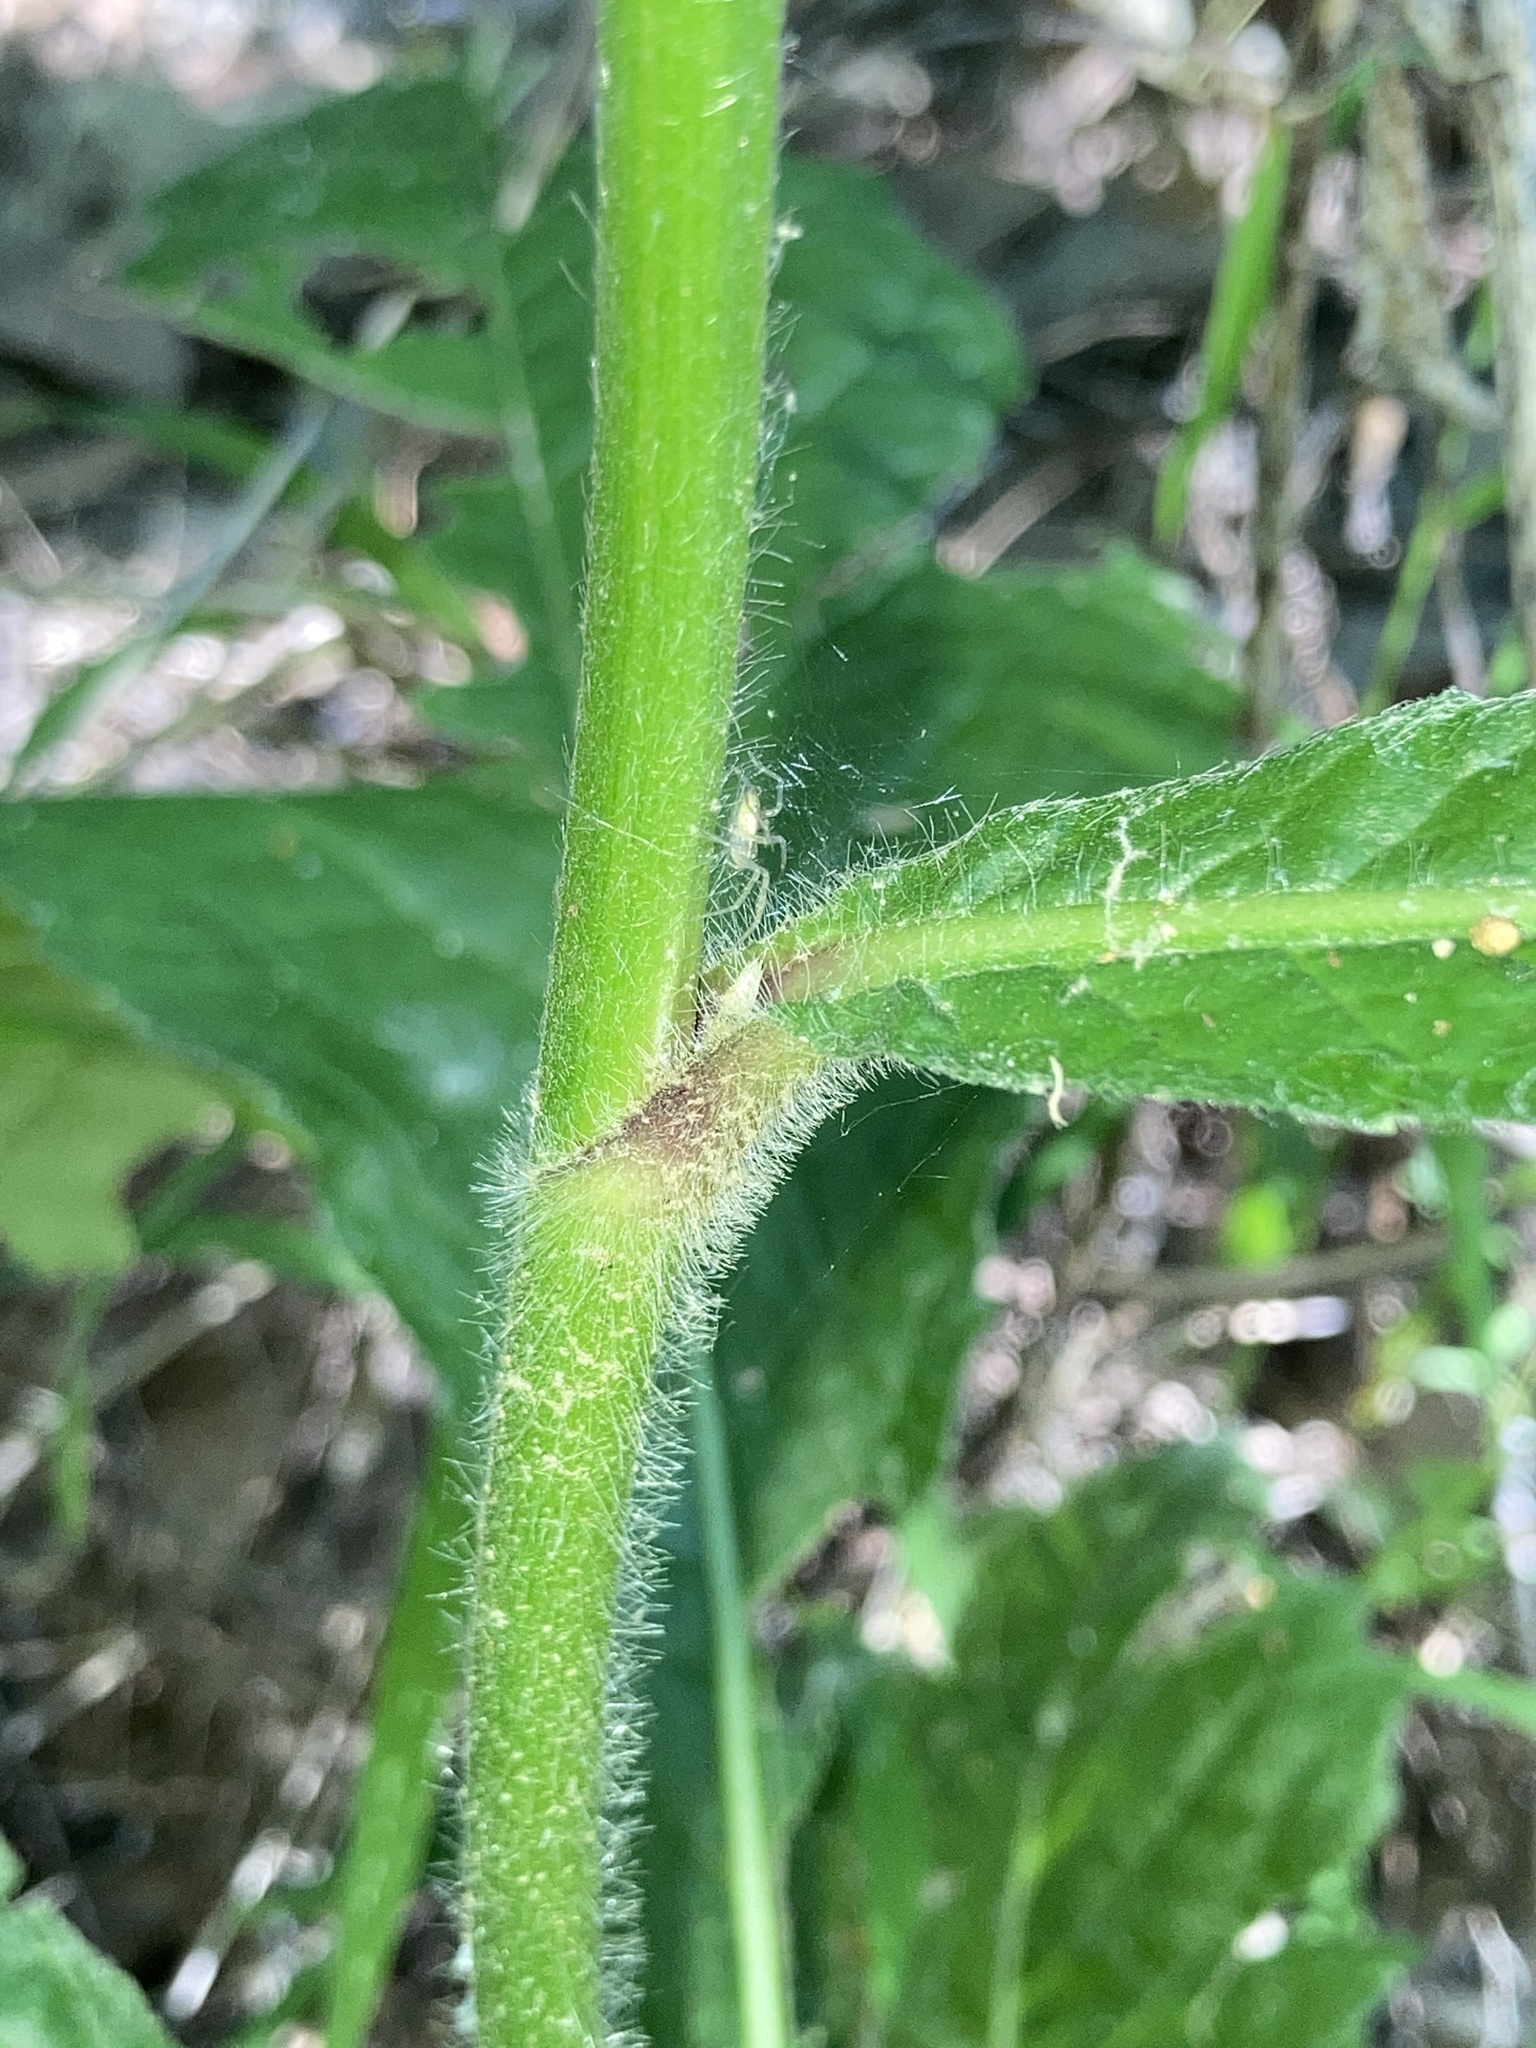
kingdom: Plantae
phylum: Tracheophyta
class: Magnoliopsida
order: Asterales
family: Asteraceae
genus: Elephantopus
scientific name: Elephantopus carolinianus
